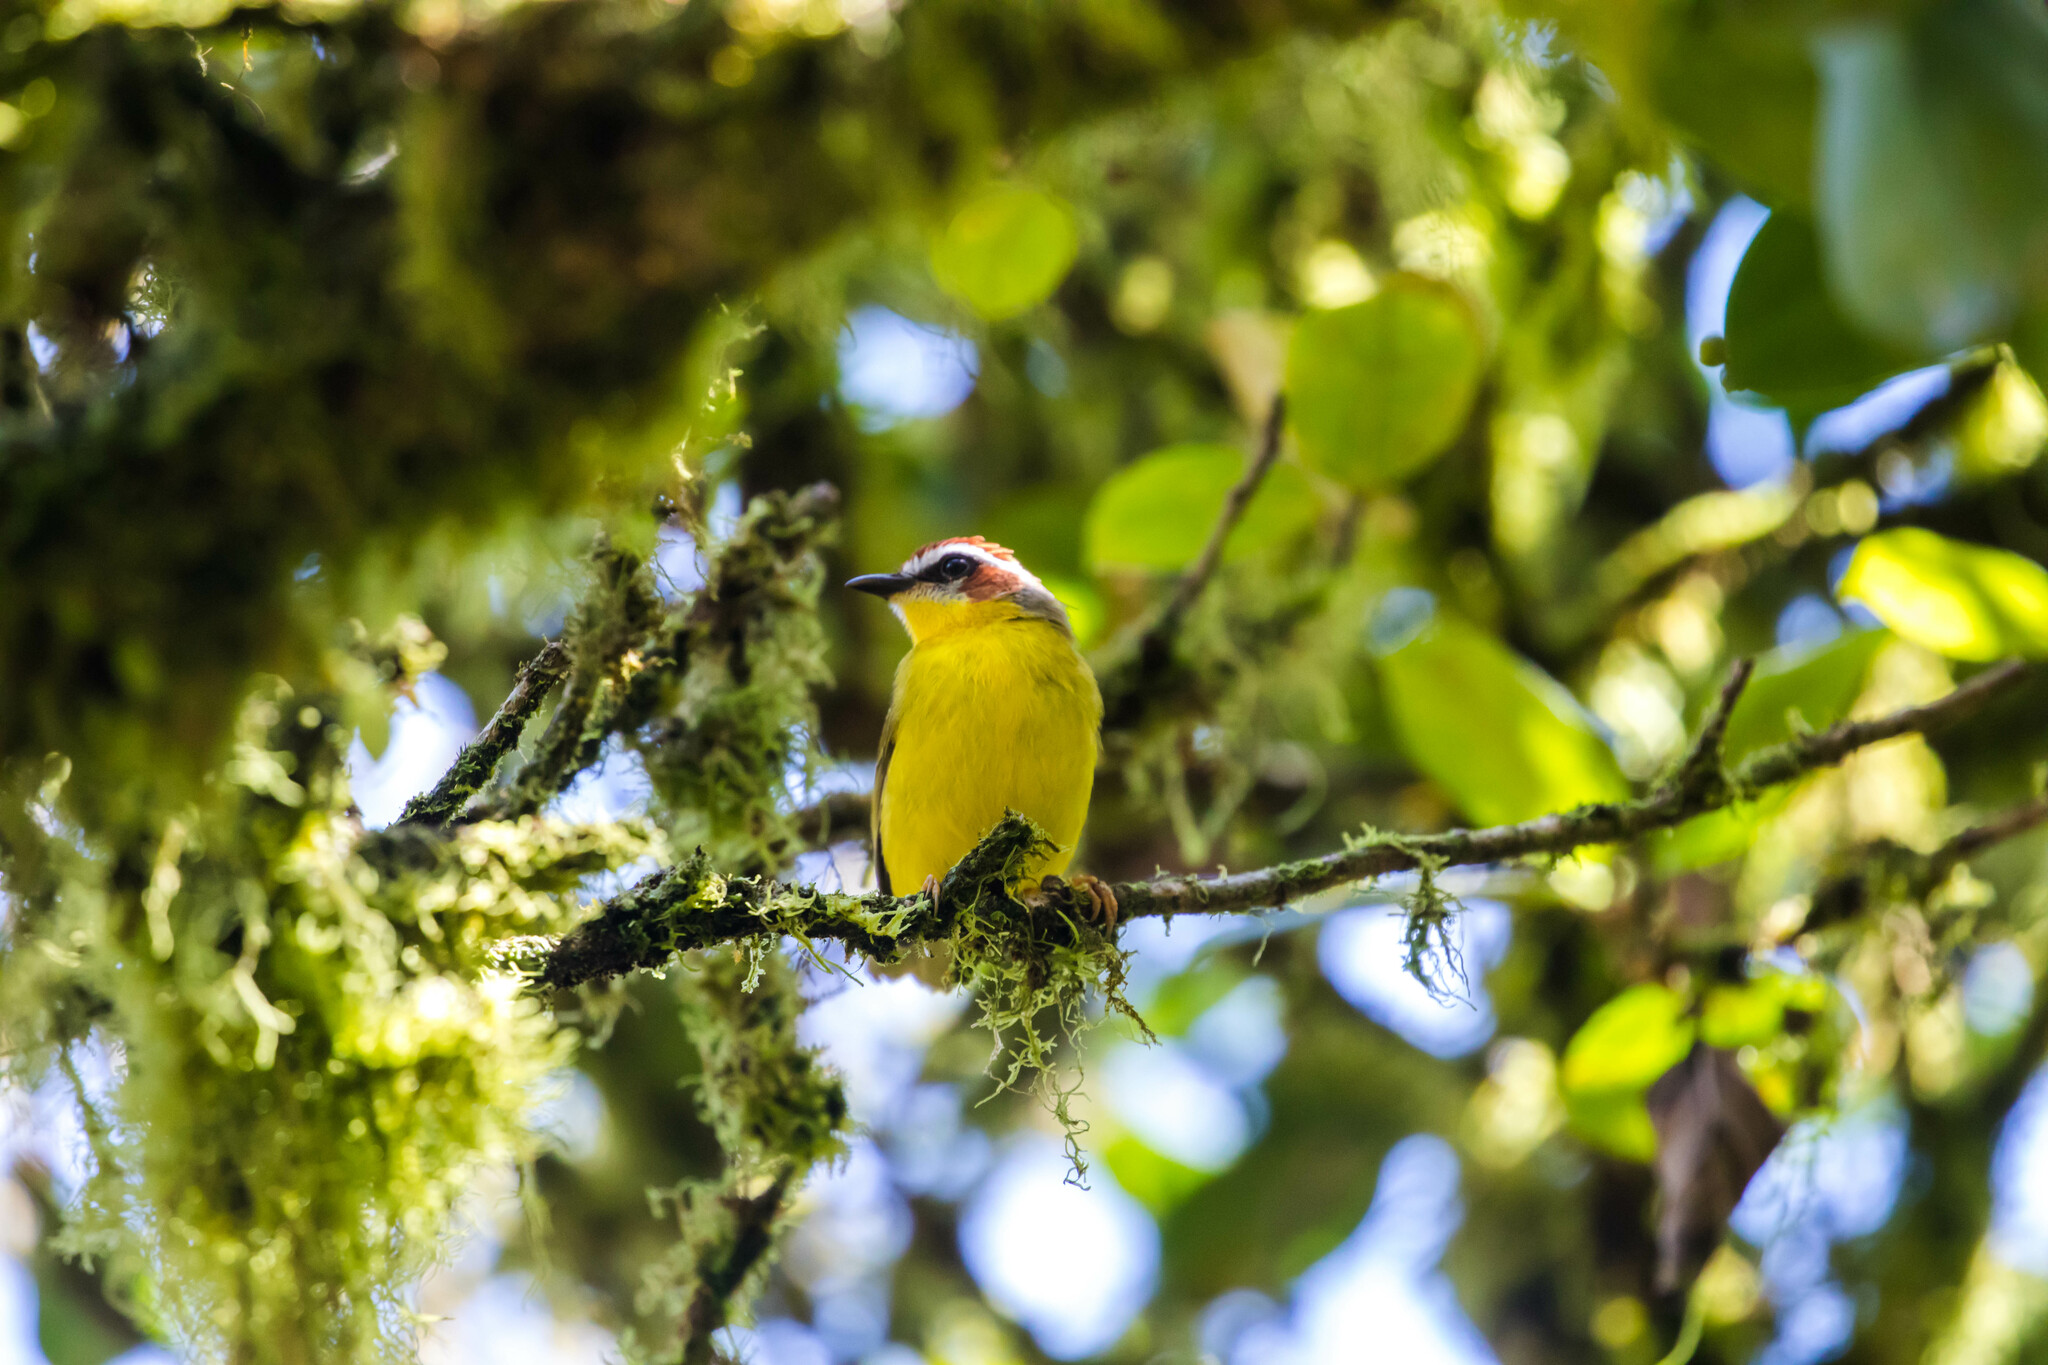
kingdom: Animalia
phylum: Chordata
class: Aves
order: Passeriformes
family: Parulidae
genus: Basileuterus
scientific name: Basileuterus rufifrons
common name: Rufous-capped warbler
